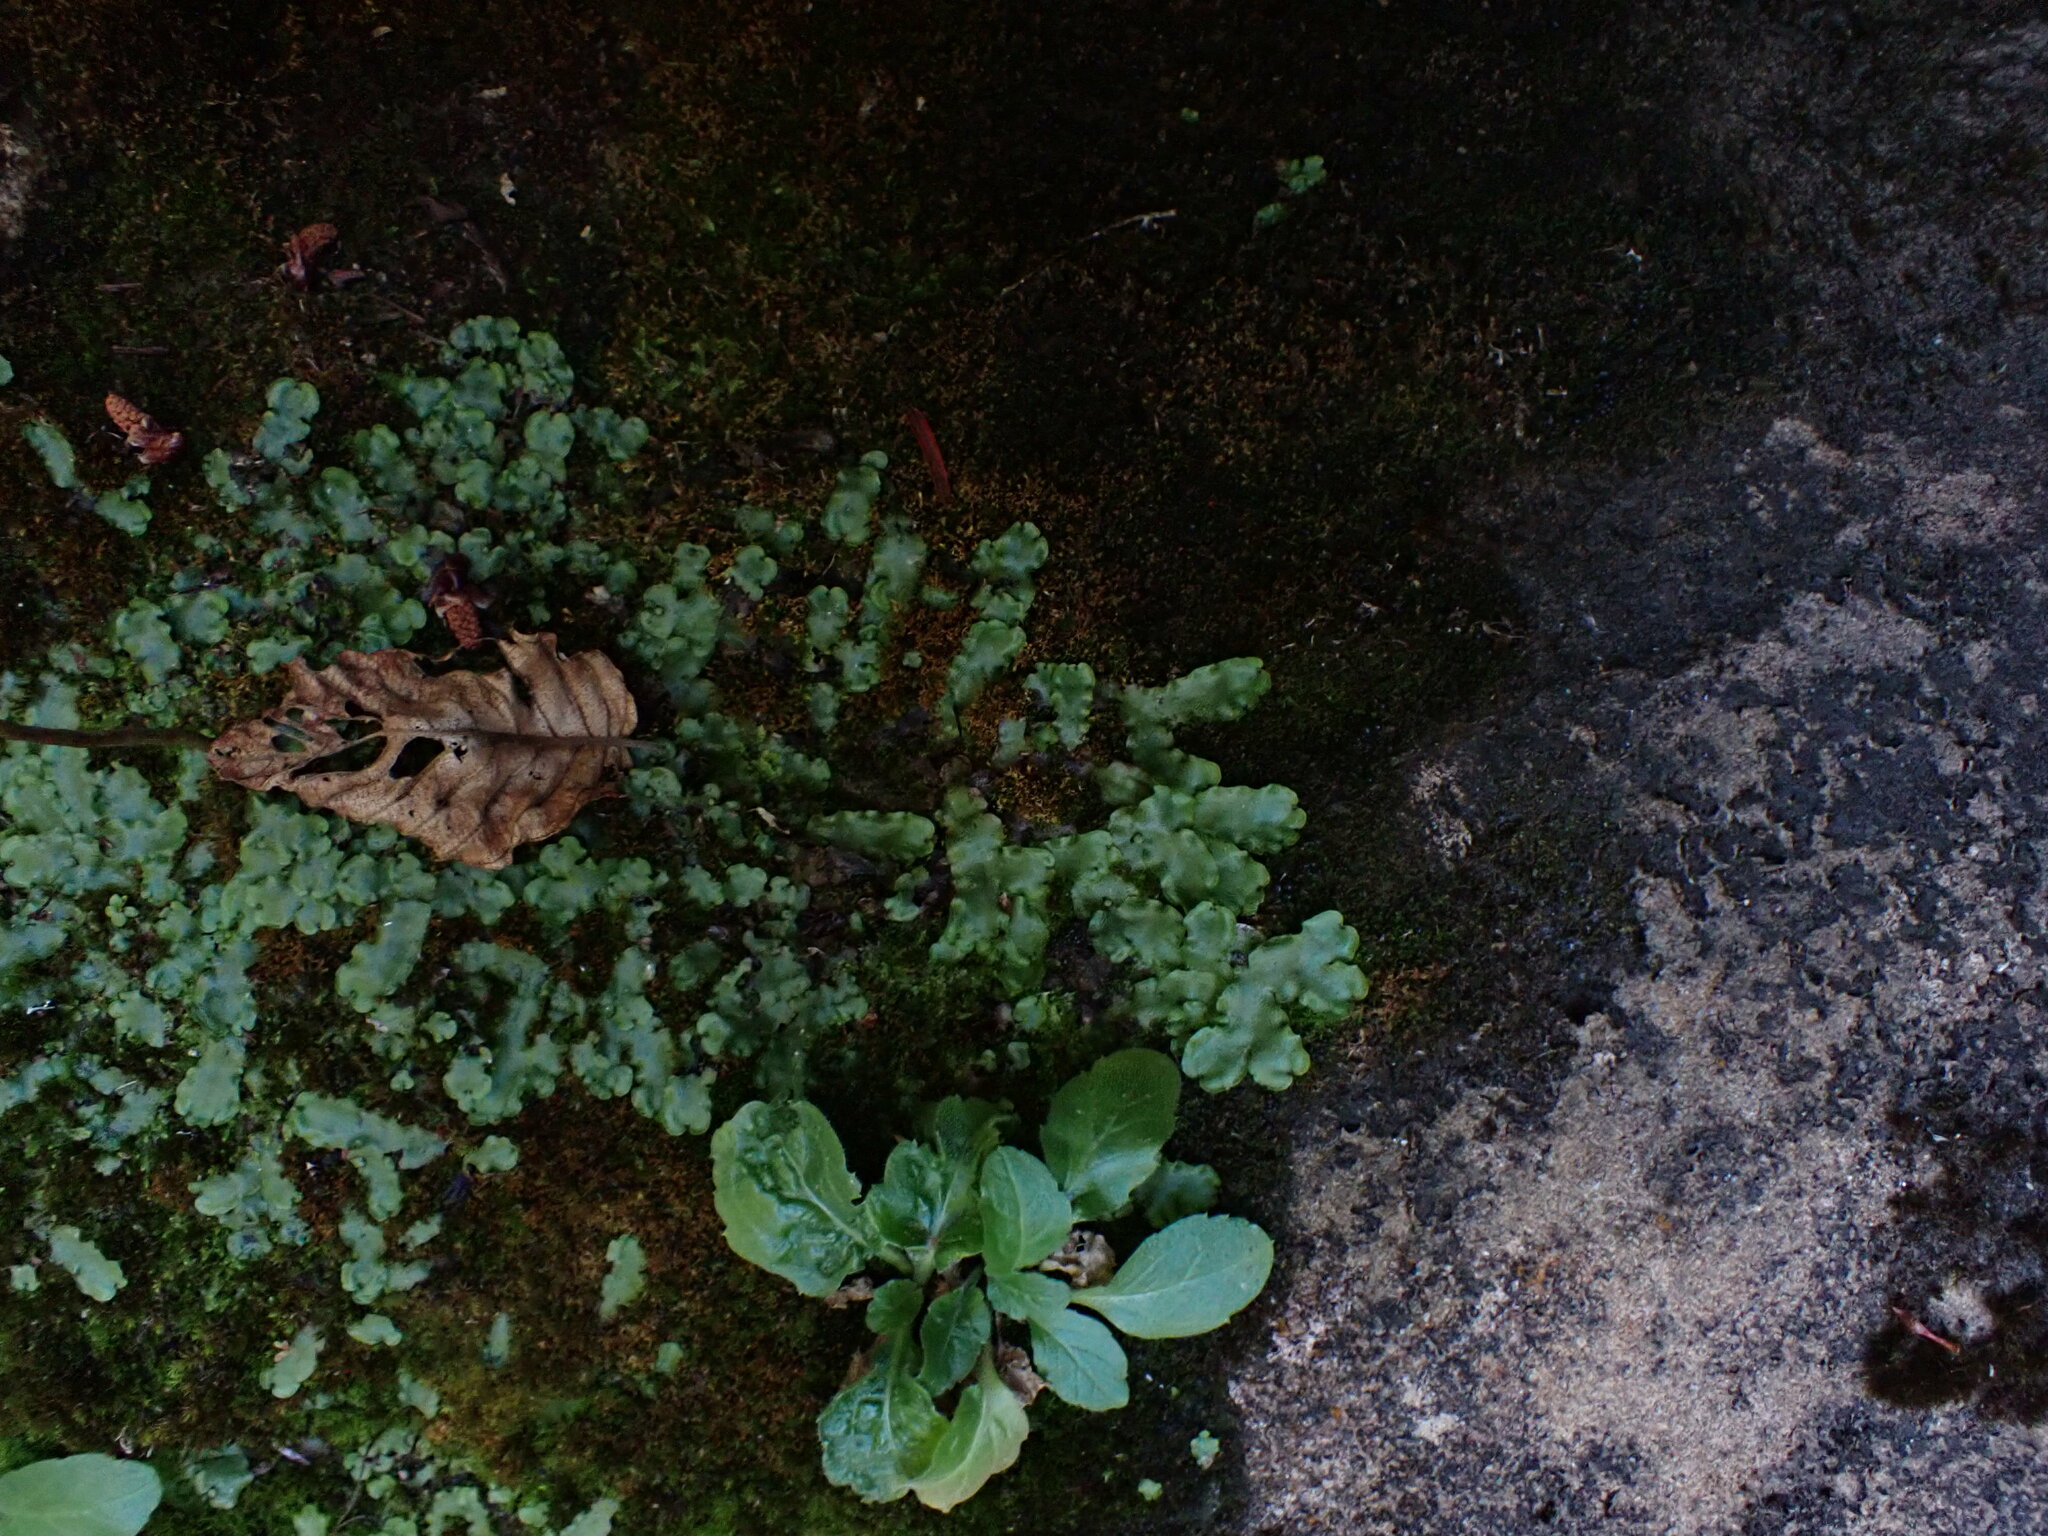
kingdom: Plantae
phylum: Marchantiophyta
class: Marchantiopsida
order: Marchantiales
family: Marchantiaceae
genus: Marchantia
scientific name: Marchantia quadrata
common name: Narrow mushroom-headed liverwort
